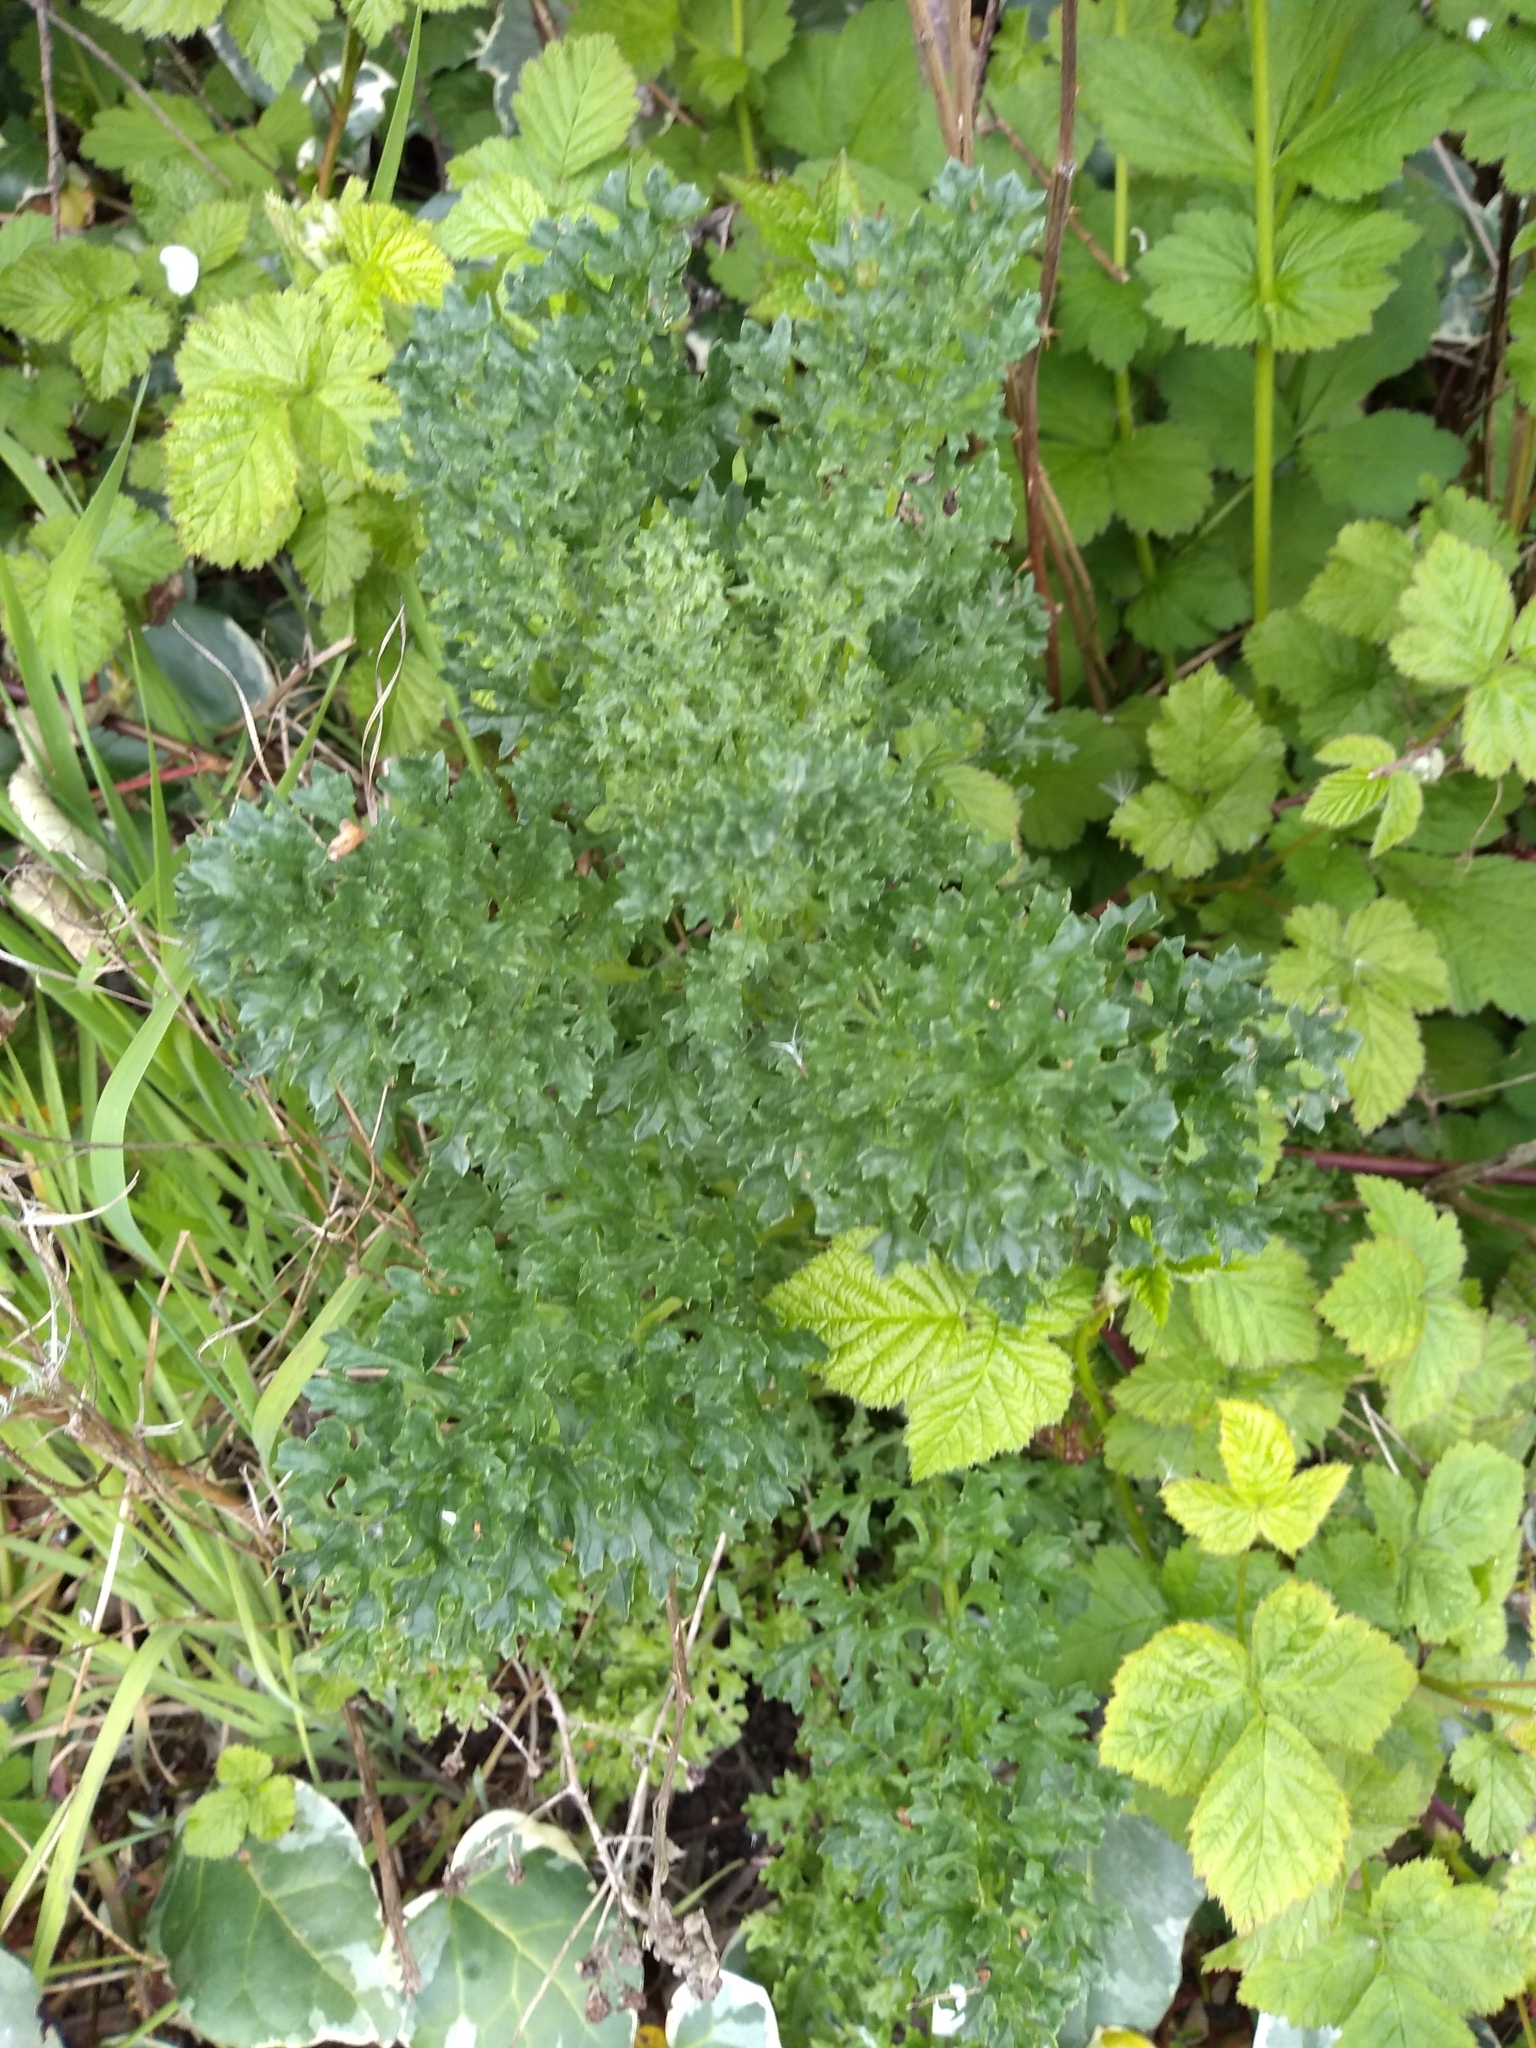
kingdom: Plantae
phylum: Tracheophyta
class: Magnoliopsida
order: Asterales
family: Asteraceae
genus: Jacobaea
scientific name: Jacobaea vulgaris
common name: Stinking willie
